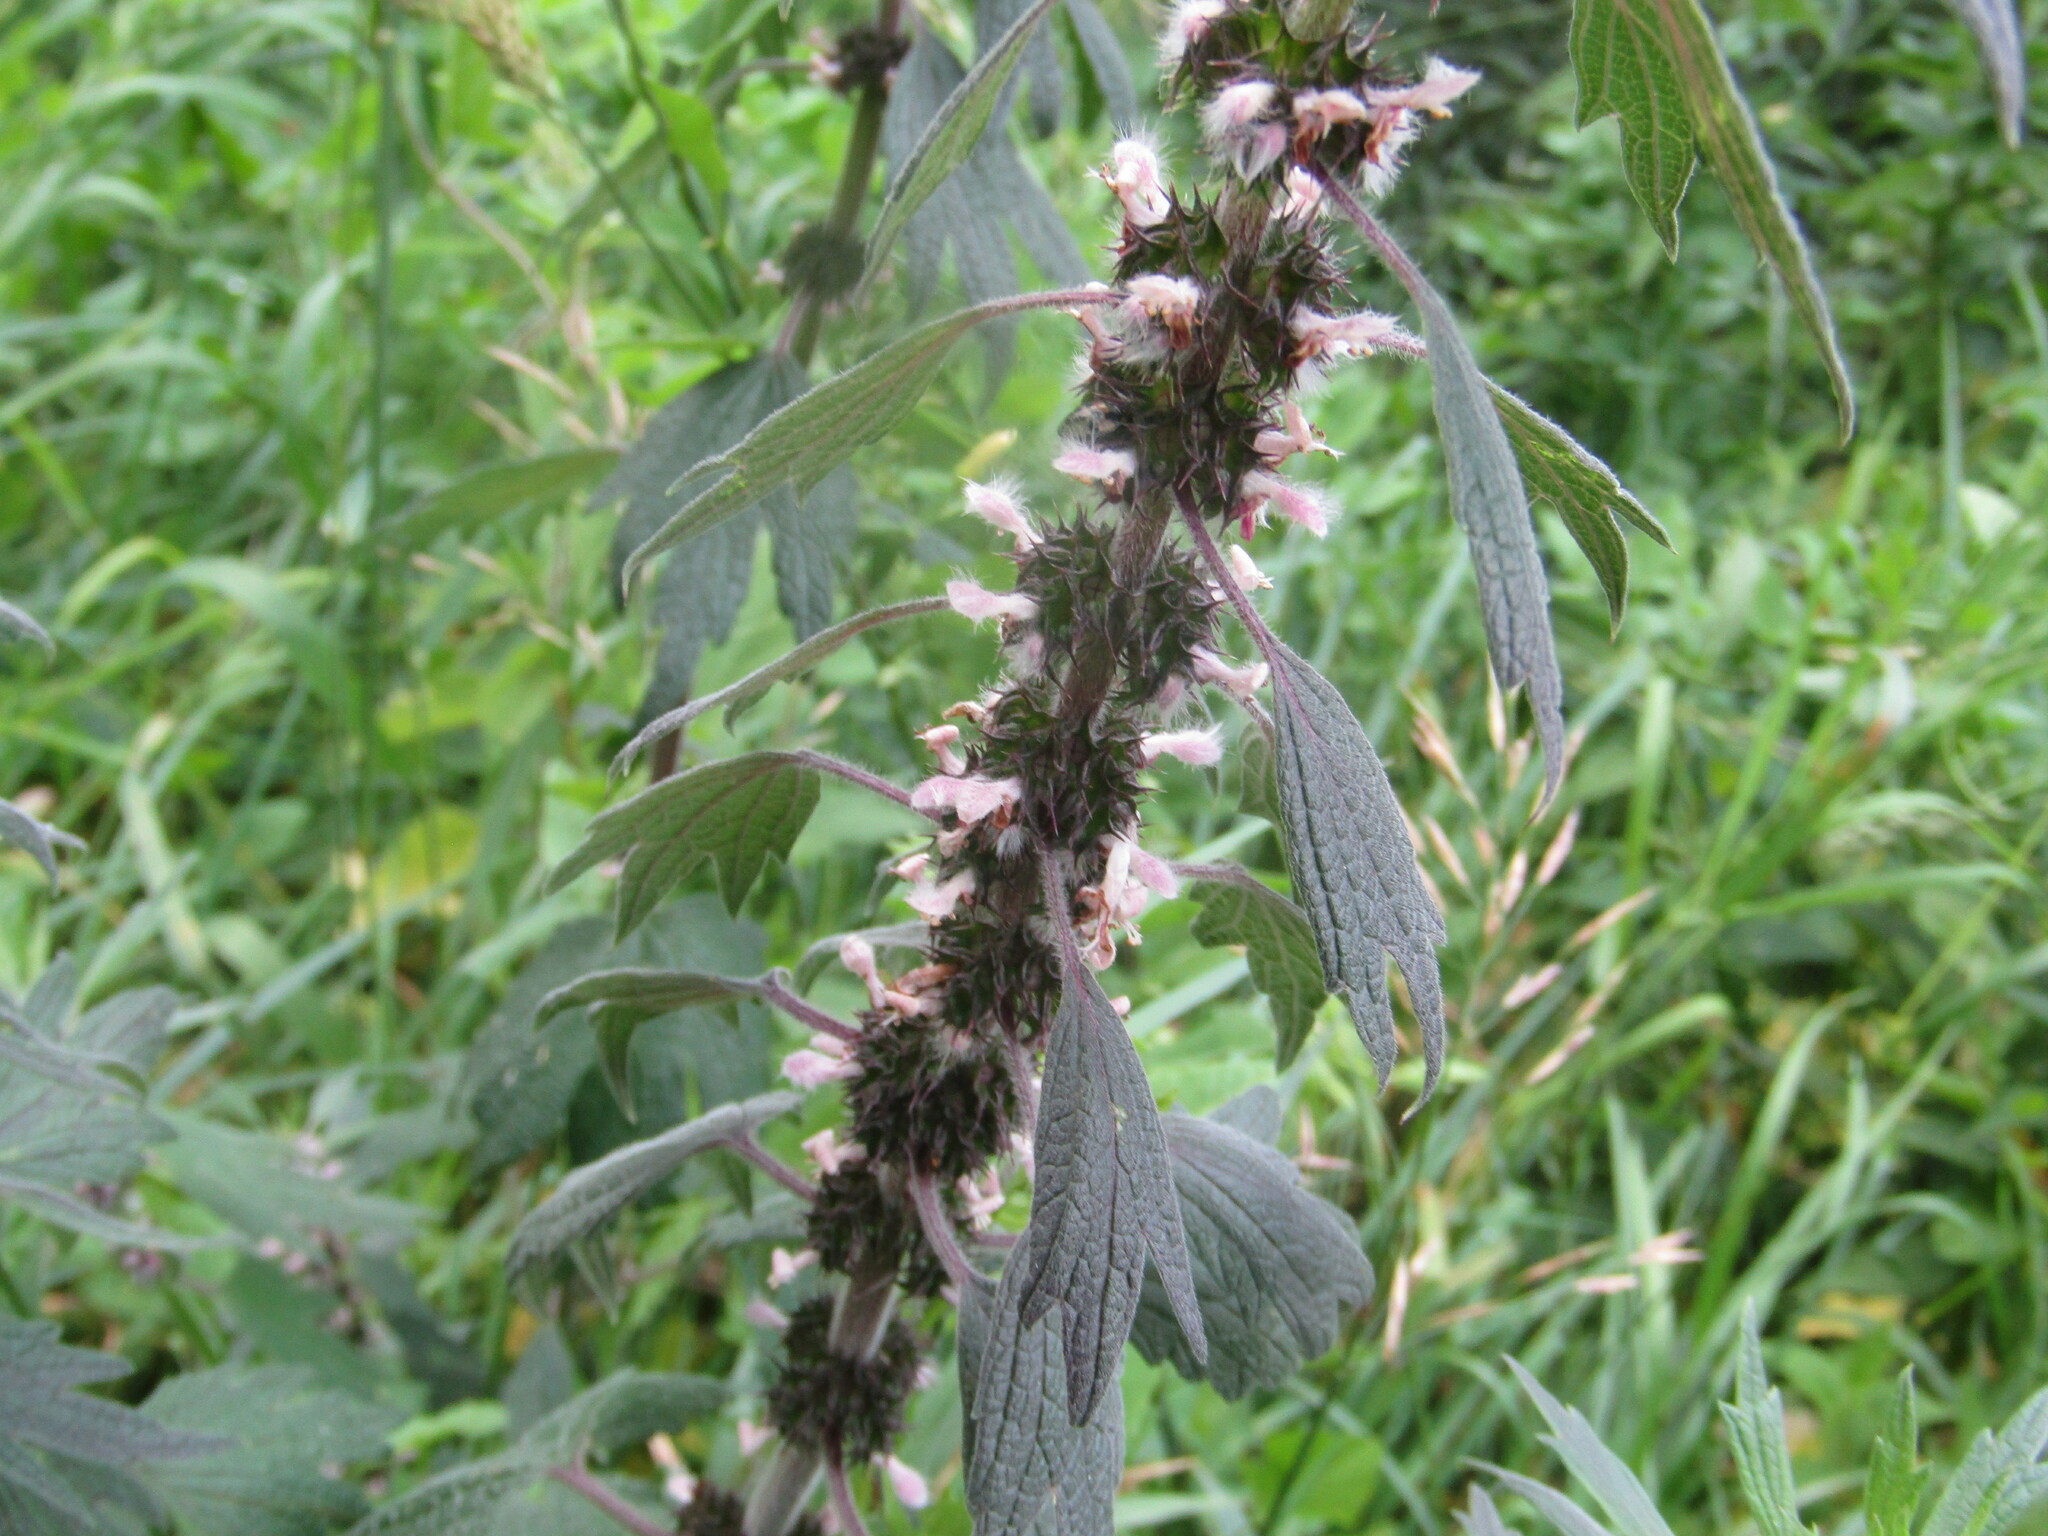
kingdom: Plantae
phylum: Tracheophyta
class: Magnoliopsida
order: Lamiales
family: Lamiaceae
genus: Leonurus
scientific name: Leonurus quinquelobatus
